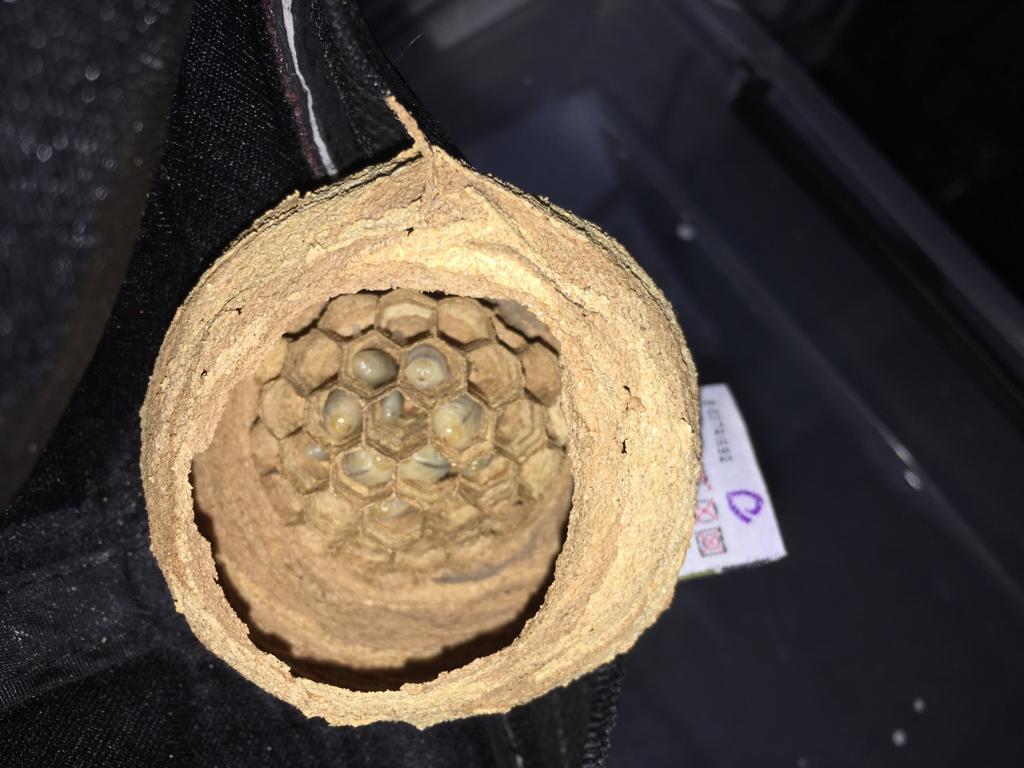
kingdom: Animalia
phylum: Arthropoda
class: Insecta
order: Hymenoptera
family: Vespidae
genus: Vespa
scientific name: Vespa crabro
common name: Hornet
